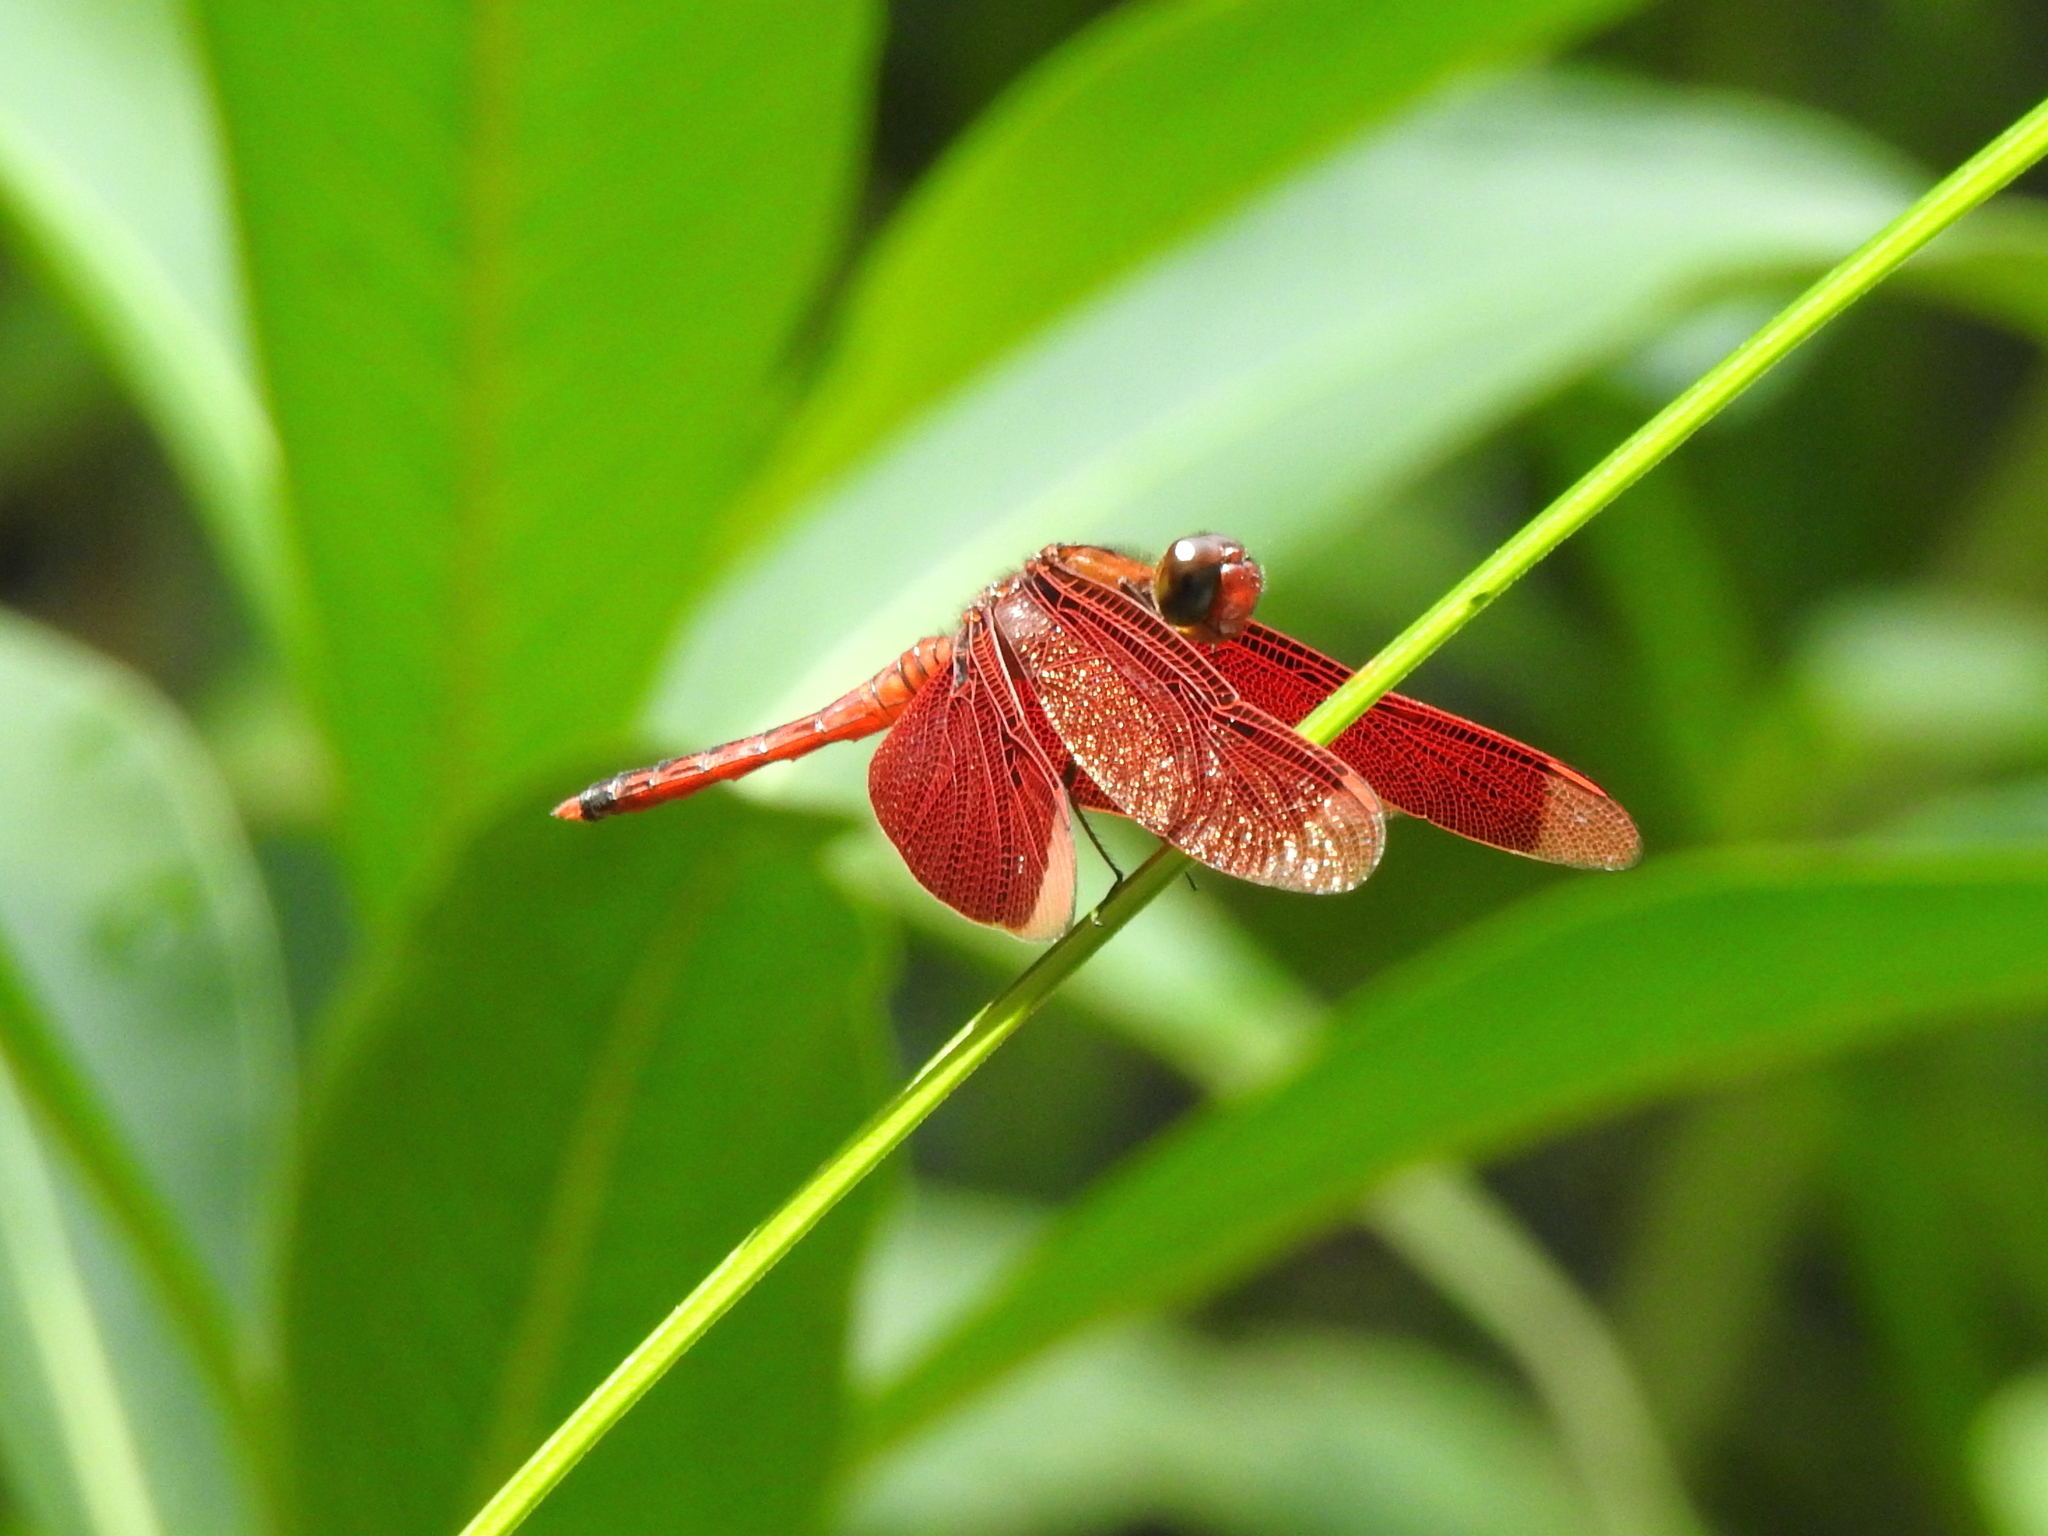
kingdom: Animalia
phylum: Arthropoda
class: Insecta
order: Odonata
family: Libellulidae
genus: Neurothemis
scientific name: Neurothemis taiwanensis
